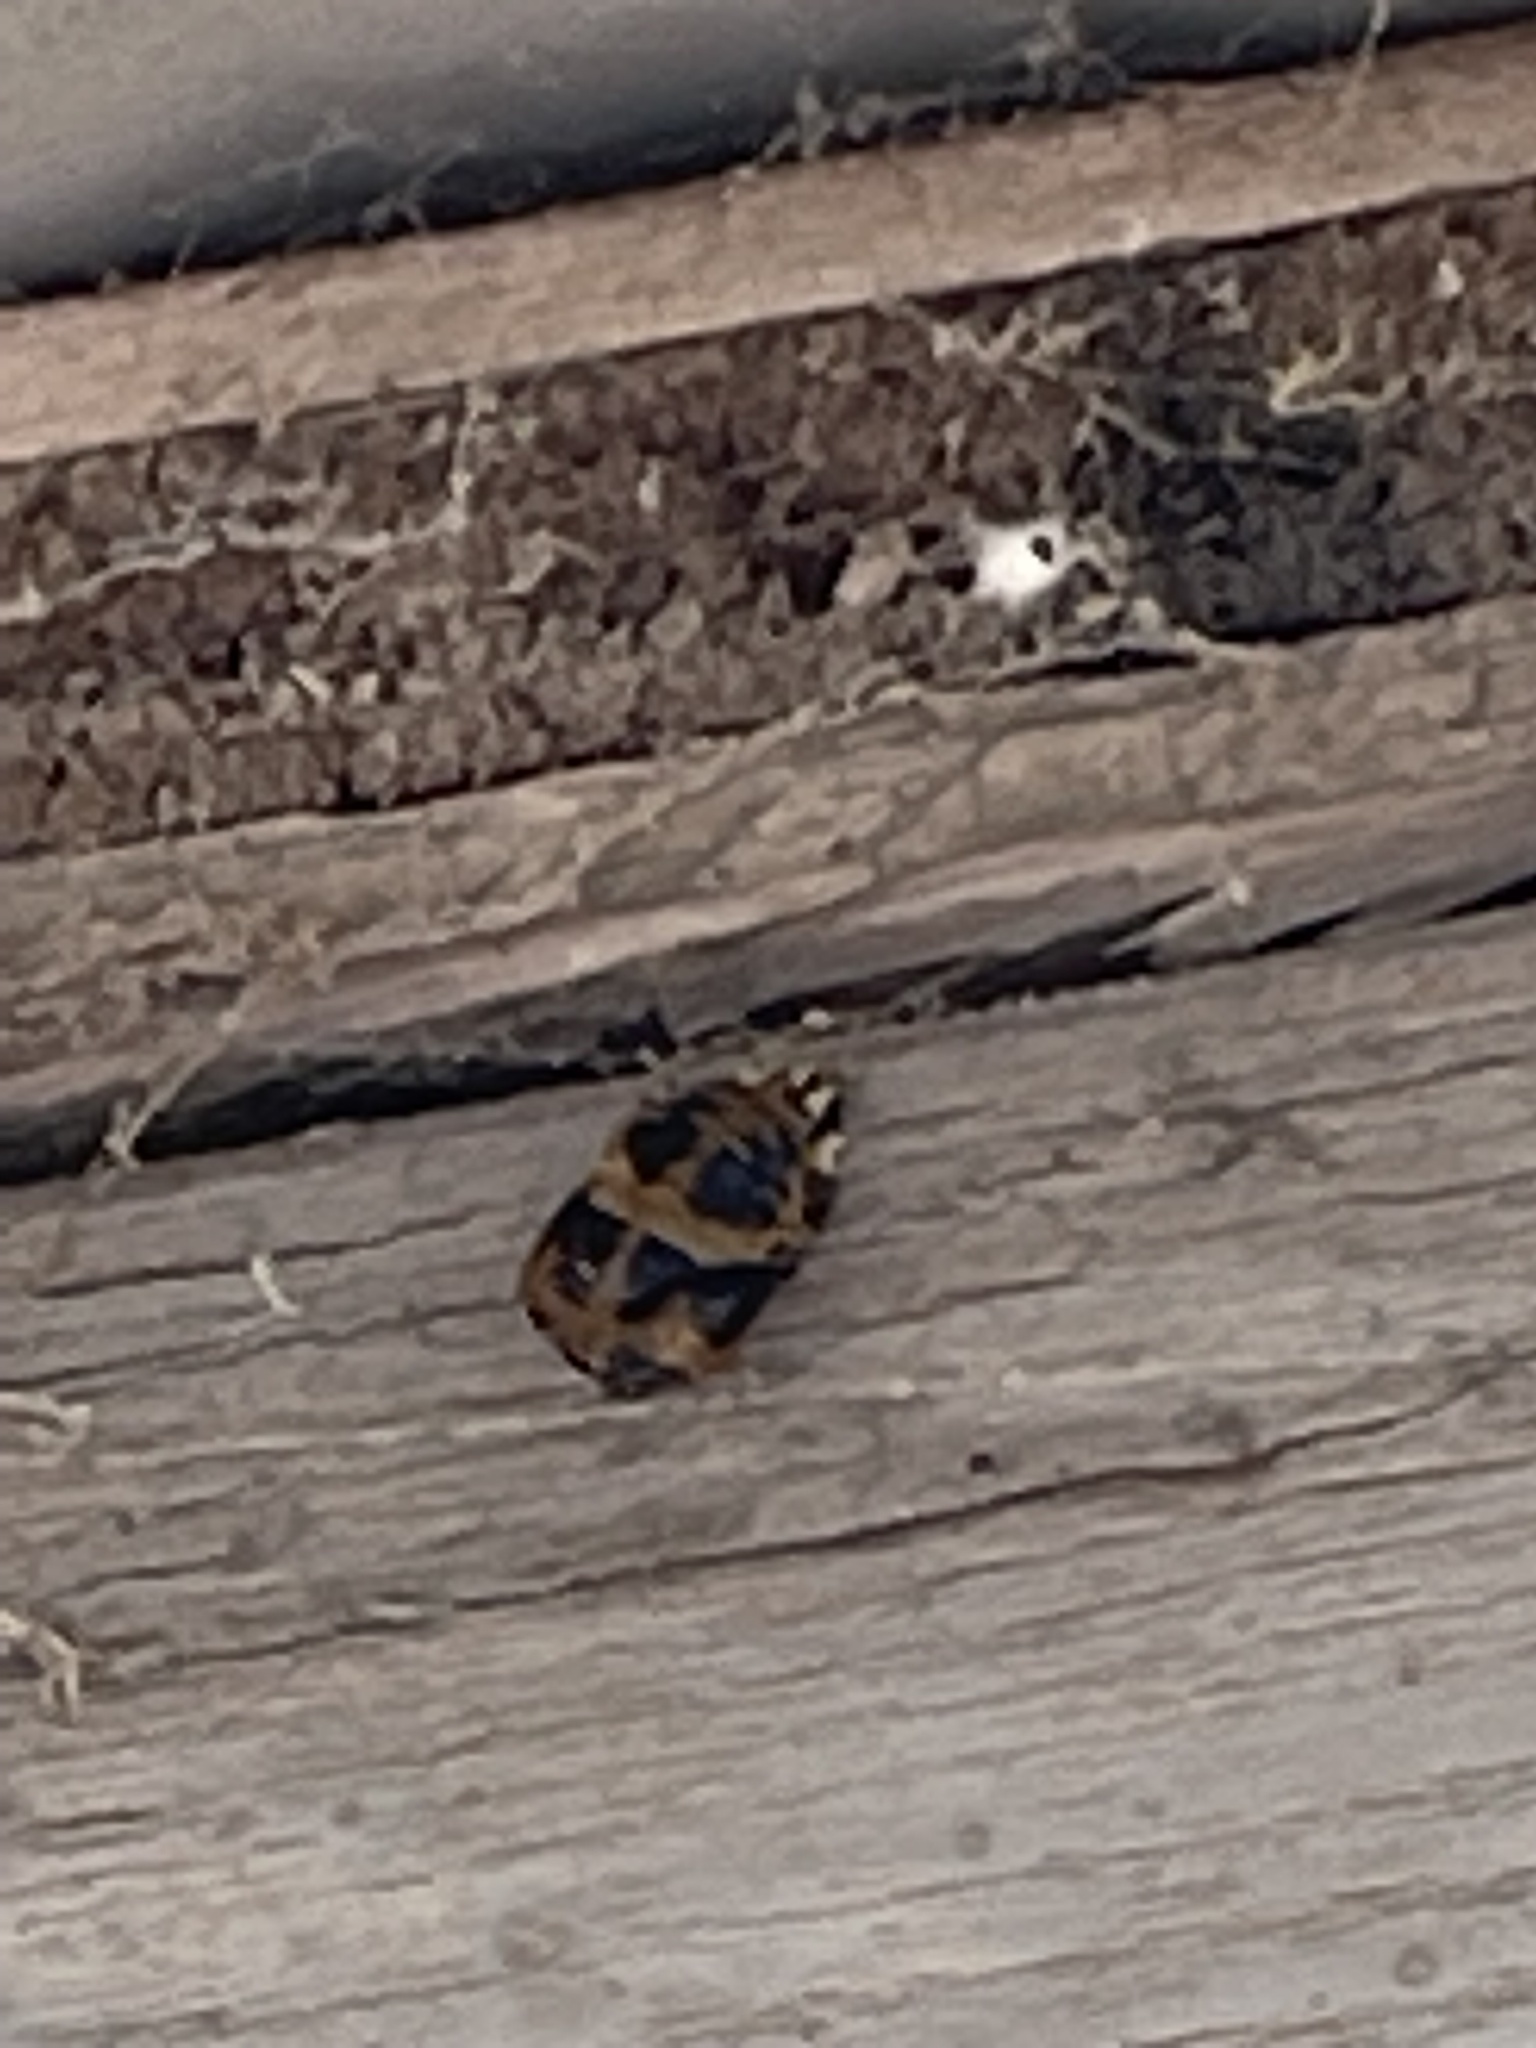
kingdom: Animalia
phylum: Arthropoda
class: Insecta
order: Coleoptera
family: Coccinellidae
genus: Harmonia
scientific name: Harmonia axyridis
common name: Harlequin ladybird
